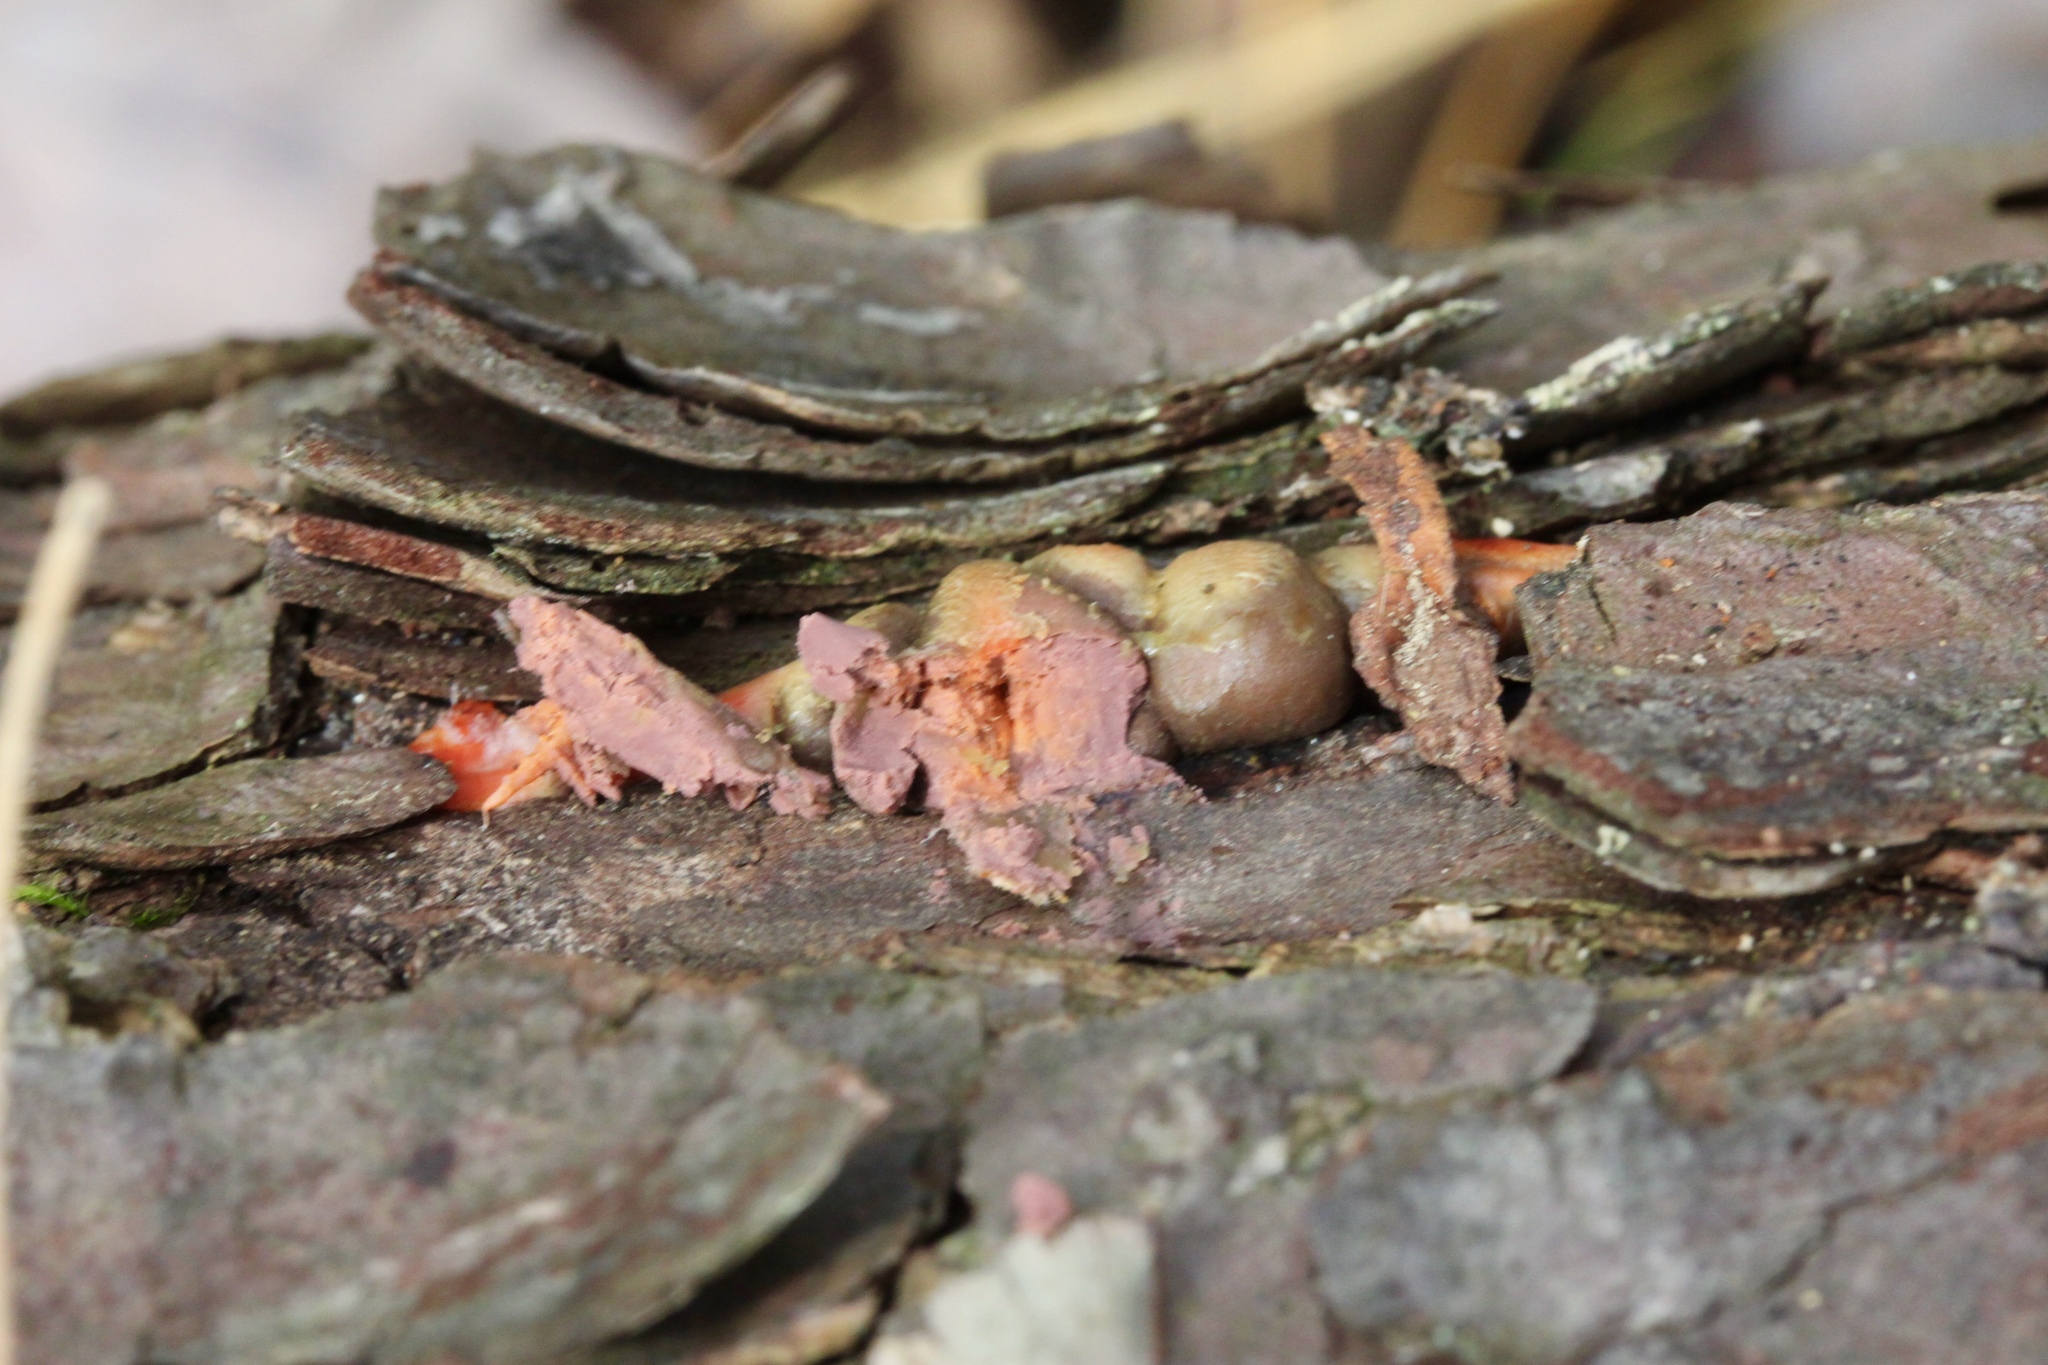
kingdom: Protozoa
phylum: Mycetozoa
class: Myxomycetes
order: Cribrariales
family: Tubiferaceae
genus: Lycogala
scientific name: Lycogala epidendrum
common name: Wolf's milk
